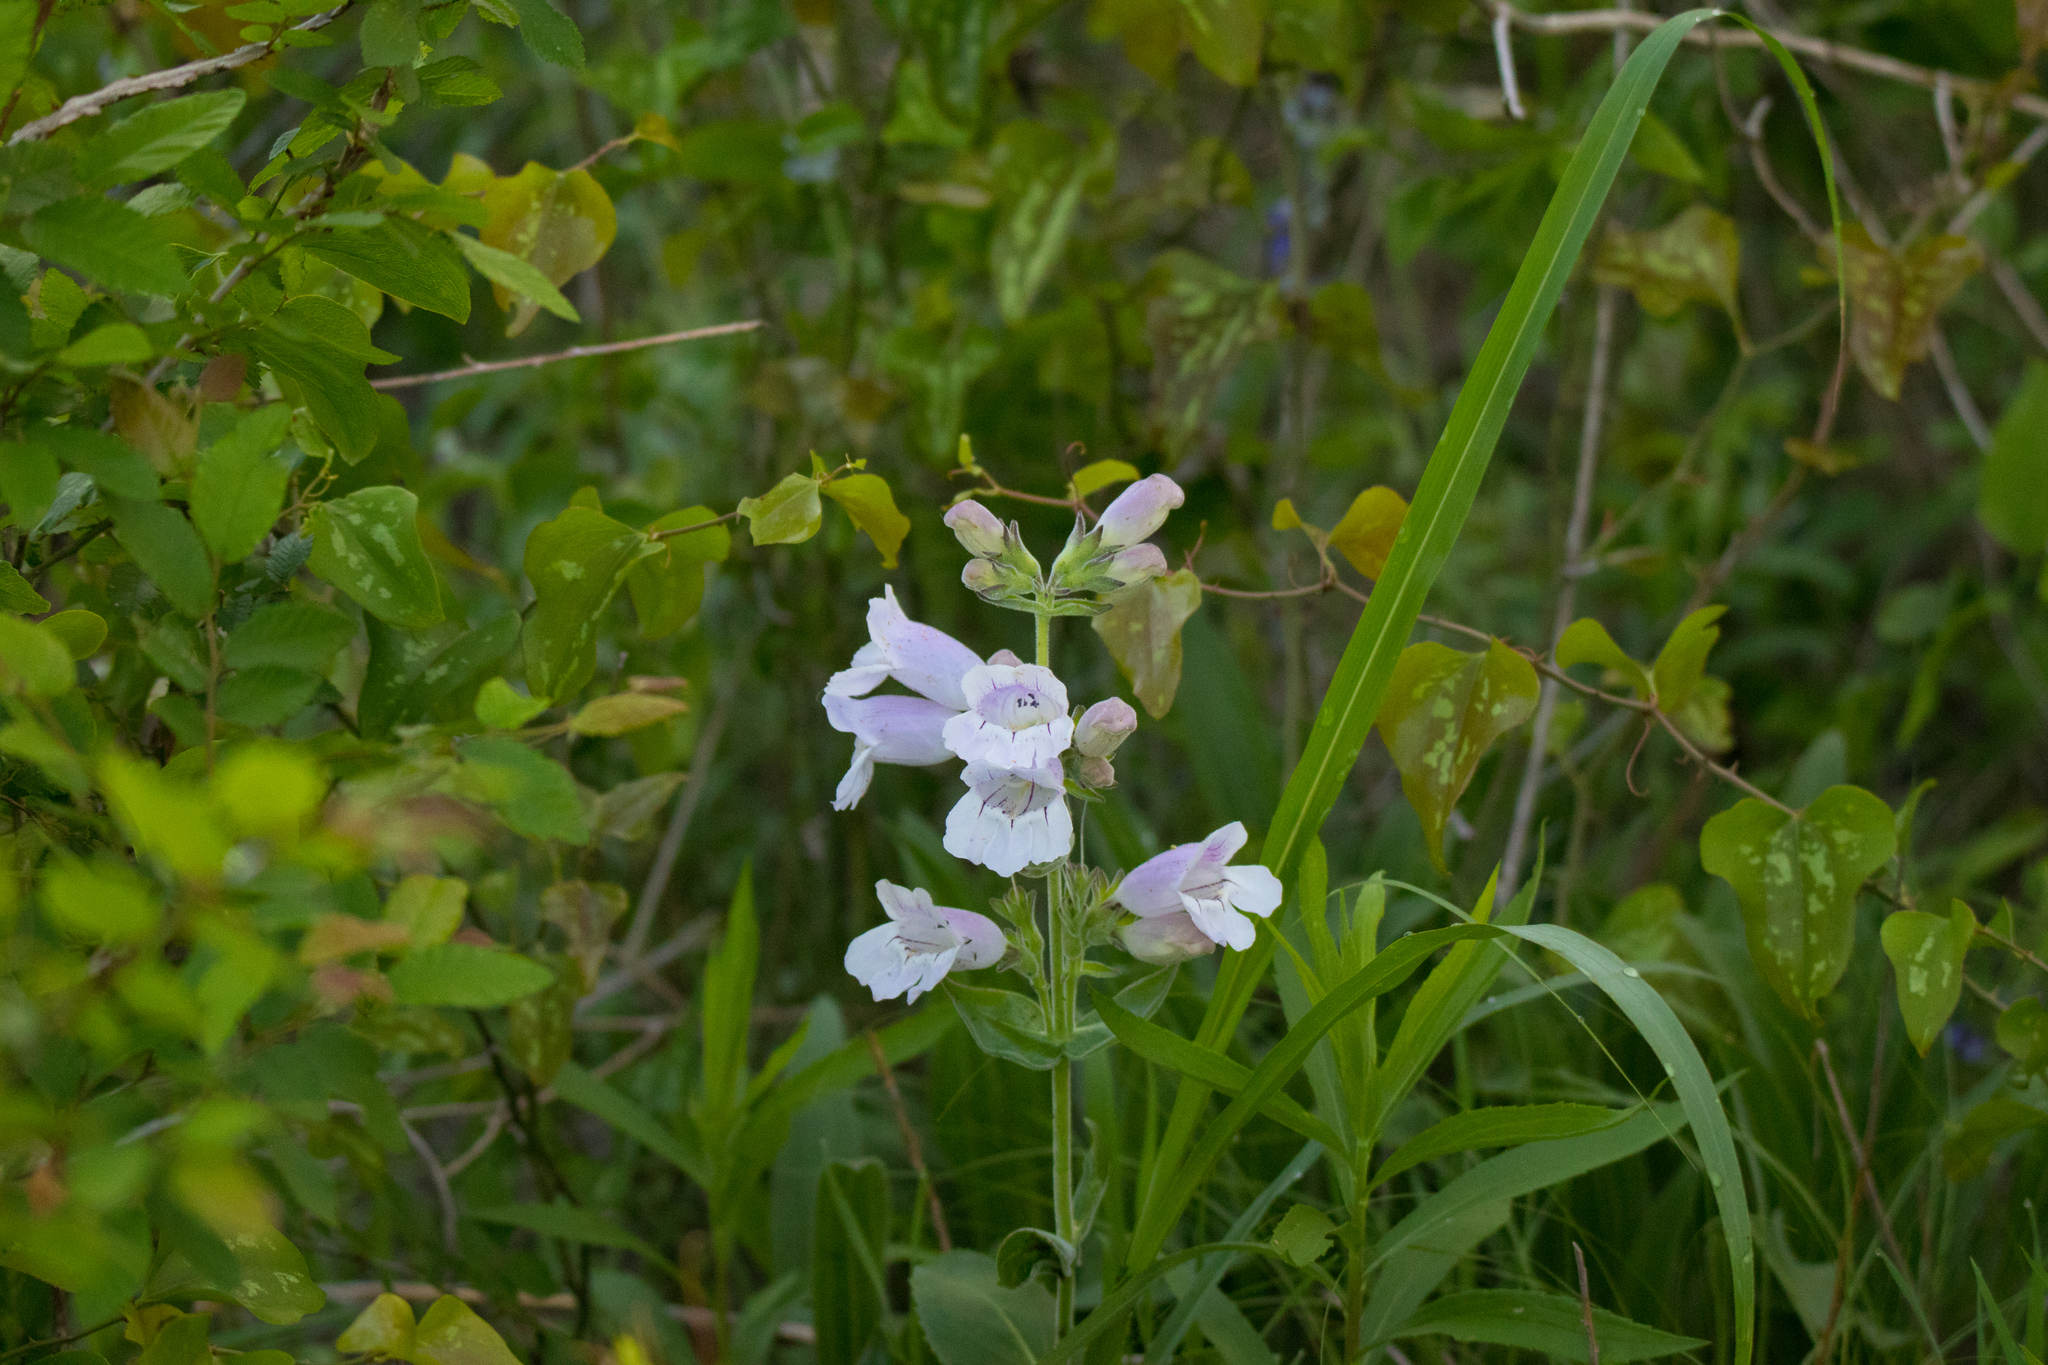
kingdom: Plantae
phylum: Tracheophyta
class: Magnoliopsida
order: Lamiales
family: Plantaginaceae
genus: Penstemon
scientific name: Penstemon cobaea
